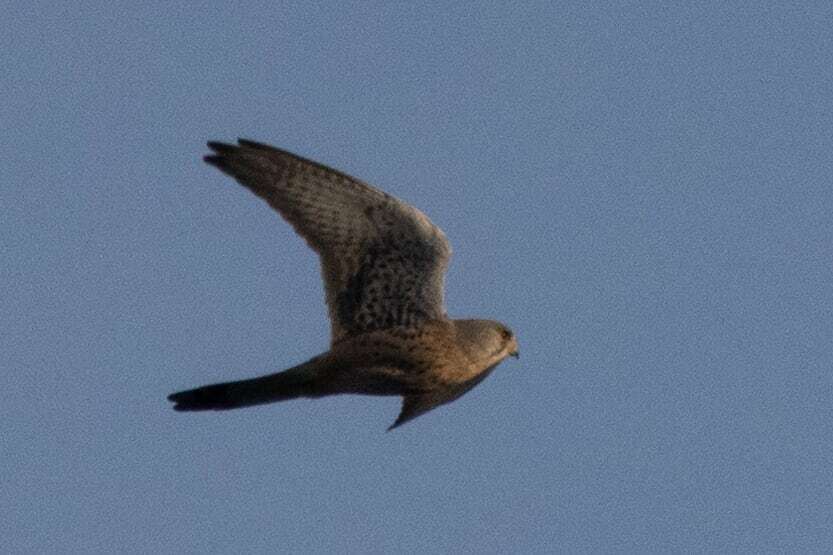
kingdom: Animalia
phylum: Chordata
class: Aves
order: Falconiformes
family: Falconidae
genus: Falco
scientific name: Falco tinnunculus
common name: Common kestrel
